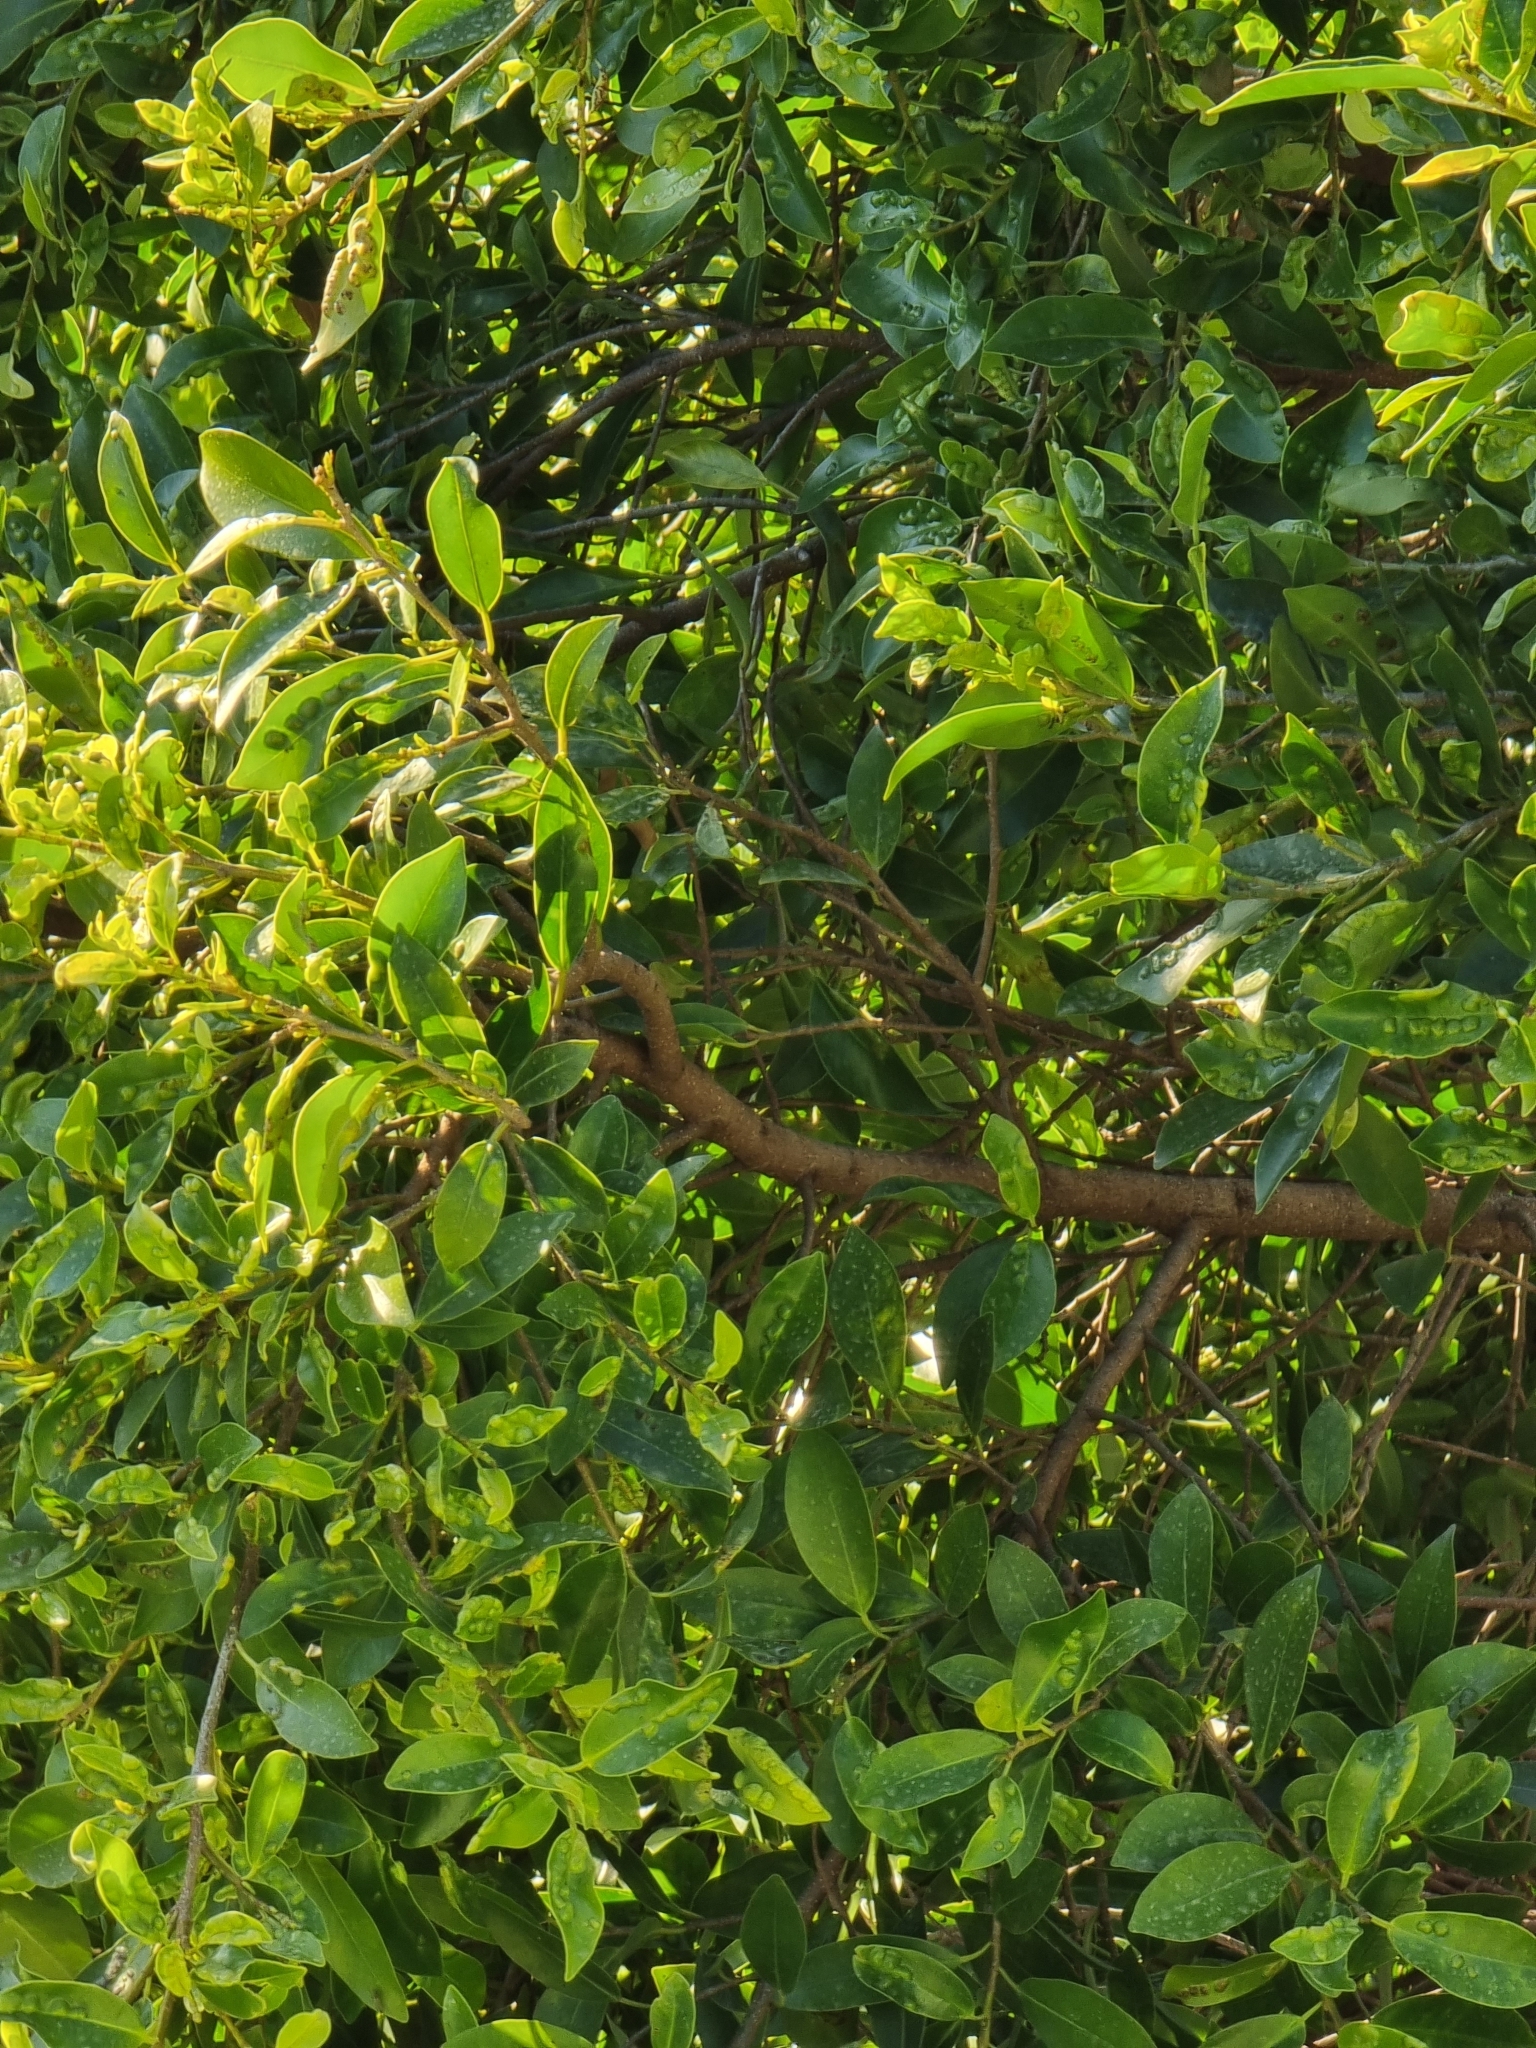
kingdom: Plantae
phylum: Tracheophyta
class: Magnoliopsida
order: Rosales
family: Moraceae
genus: Ficus
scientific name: Ficus microcarpa
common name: Chinese banyan
